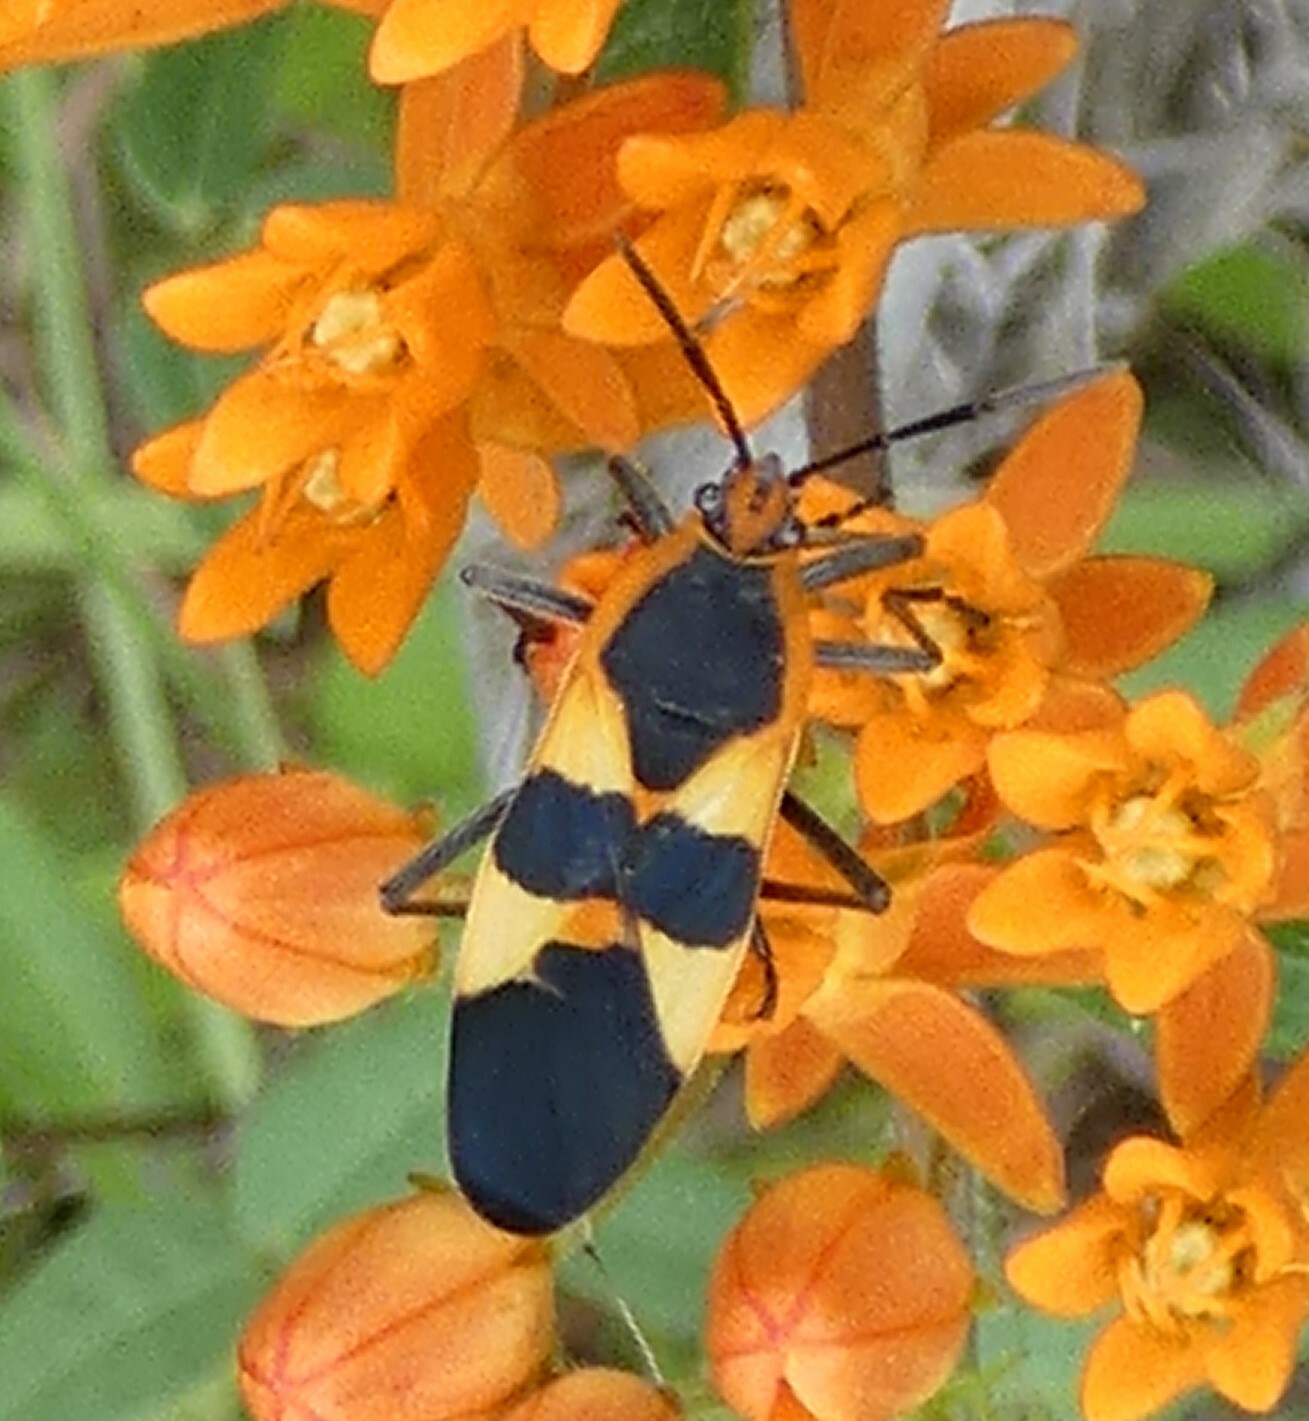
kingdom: Animalia
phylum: Arthropoda
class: Insecta
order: Hemiptera
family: Lygaeidae
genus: Oncopeltus
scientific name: Oncopeltus fasciatus
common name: Large milkweed bug
